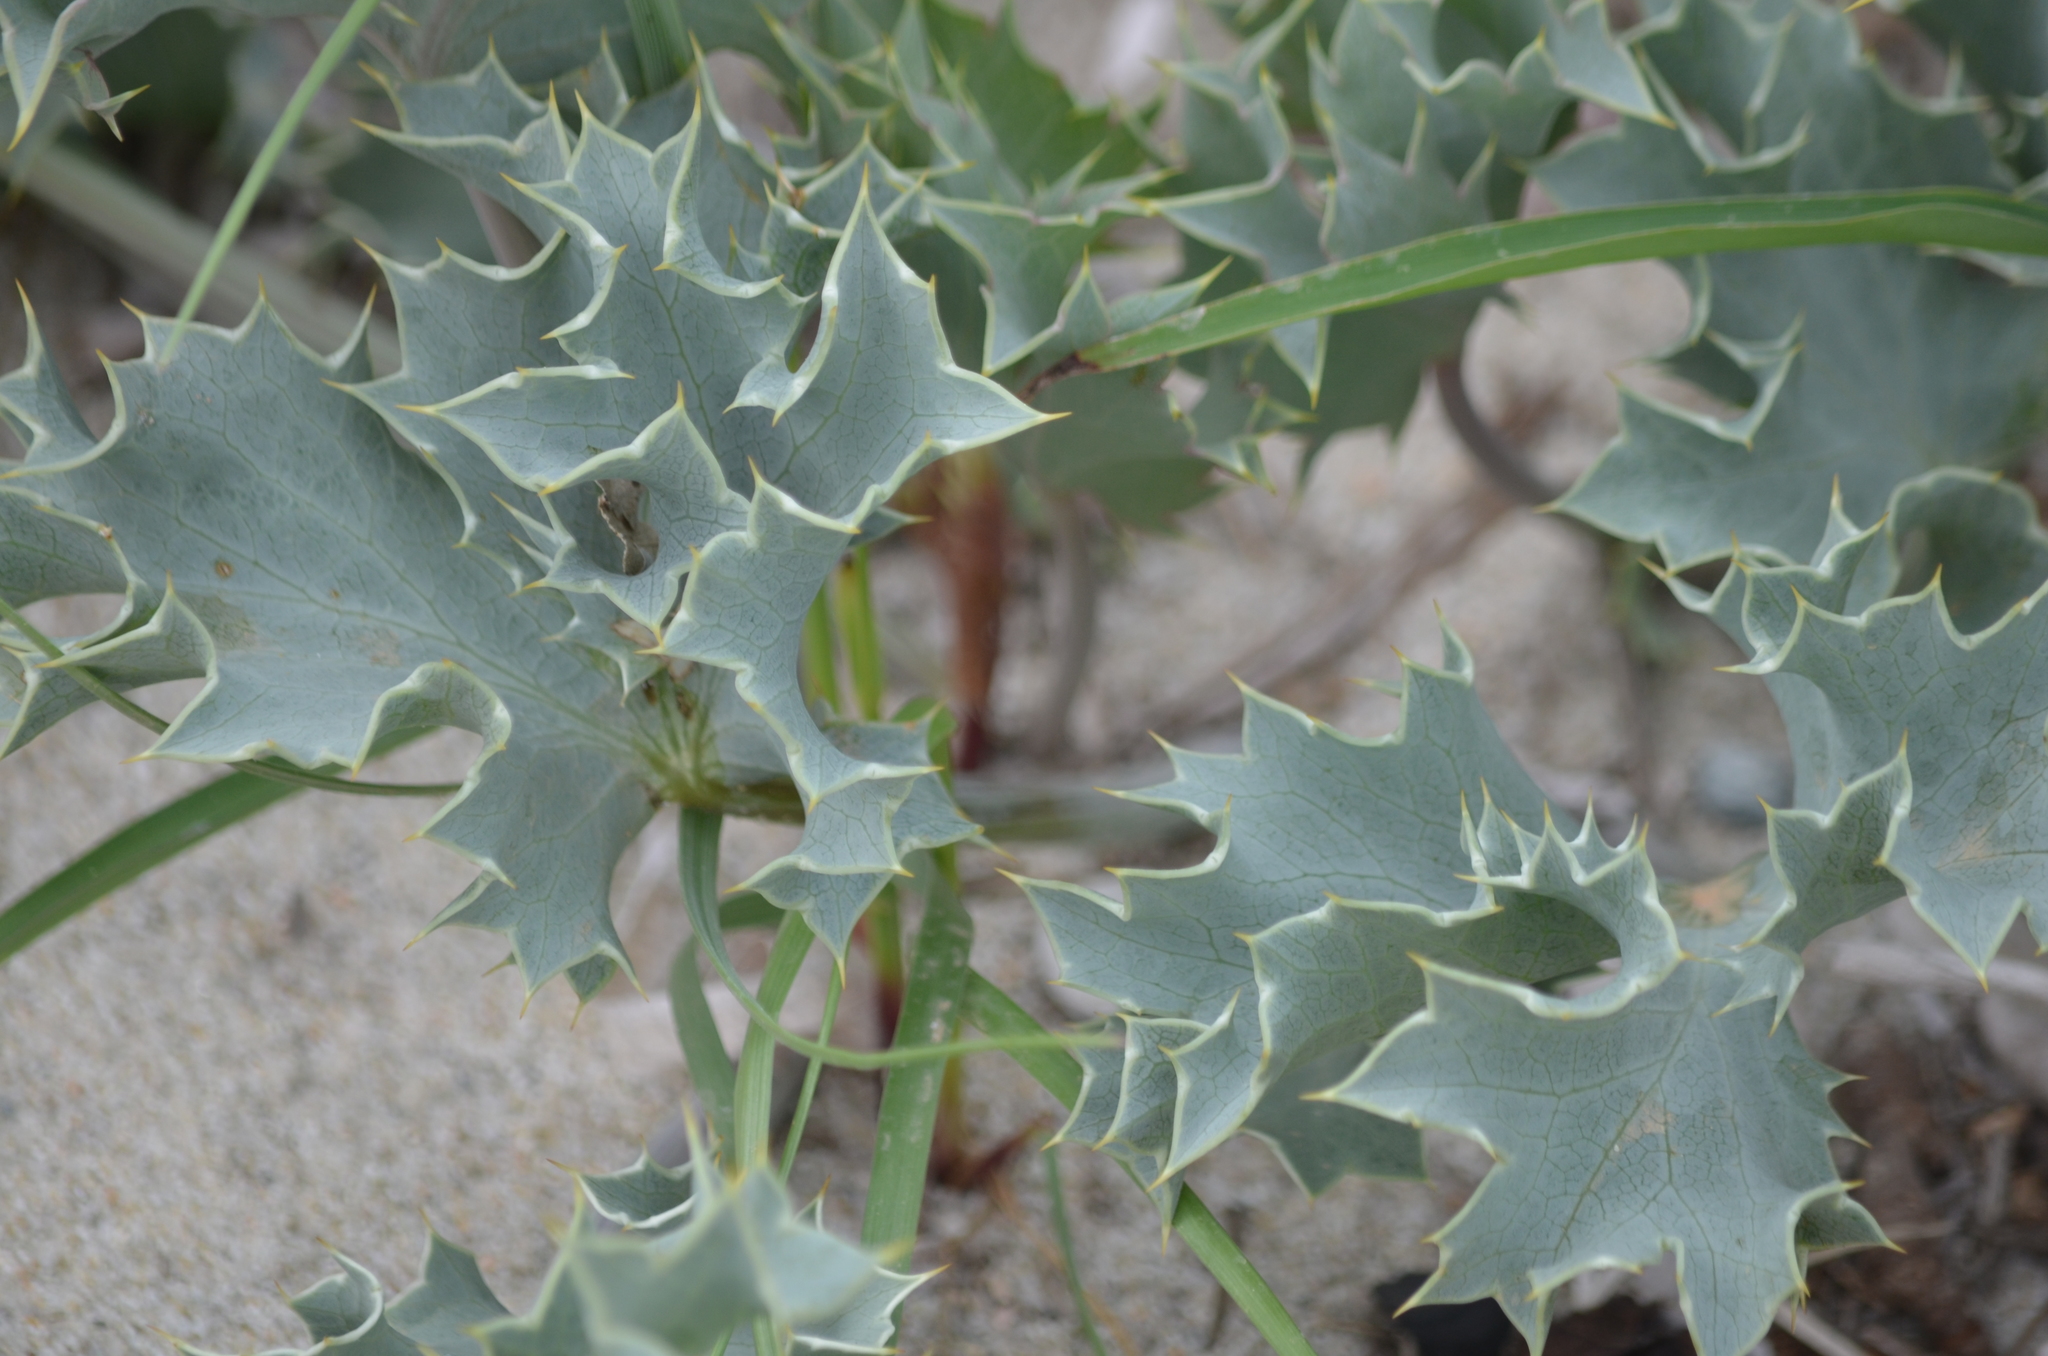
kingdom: Plantae
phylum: Tracheophyta
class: Magnoliopsida
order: Apiales
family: Apiaceae
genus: Eryngium
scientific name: Eryngium maritimum
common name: Sea-holly
